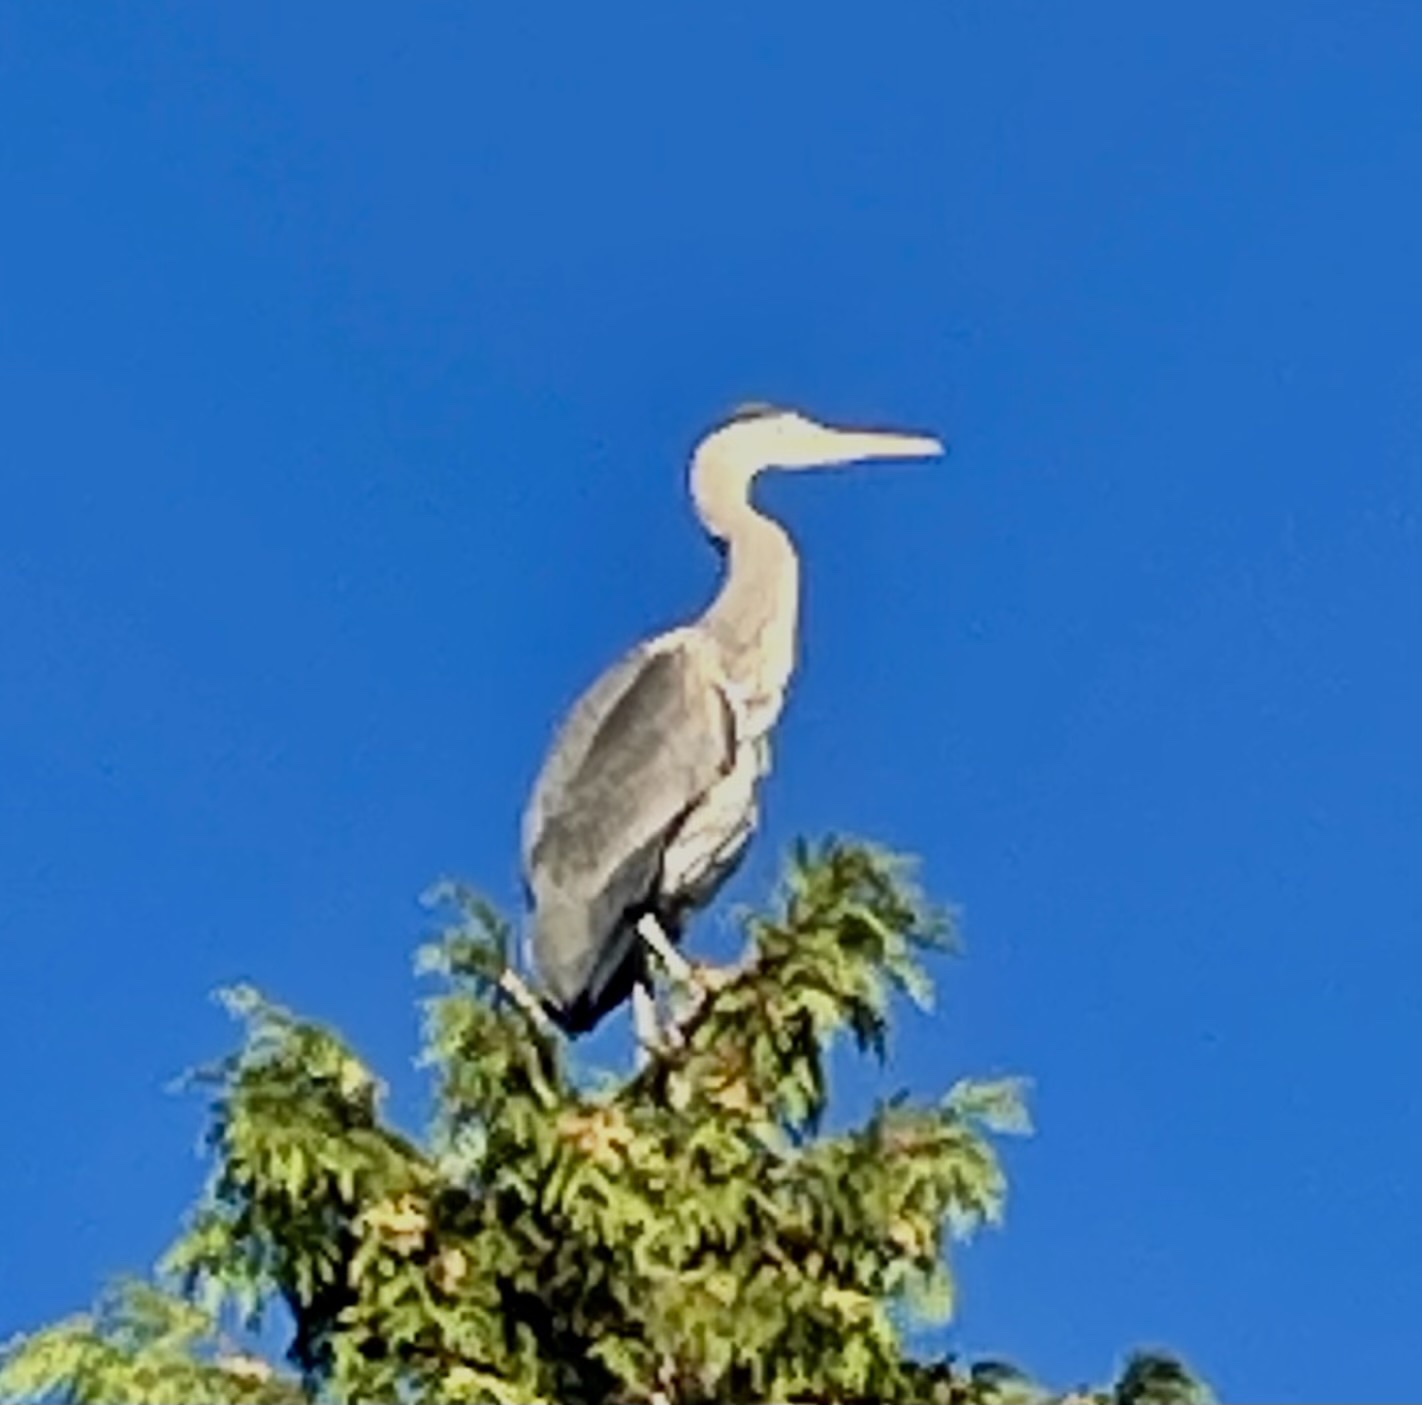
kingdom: Animalia
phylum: Chordata
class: Aves
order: Pelecaniformes
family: Ardeidae
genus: Ardea
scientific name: Ardea herodias
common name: Great blue heron
